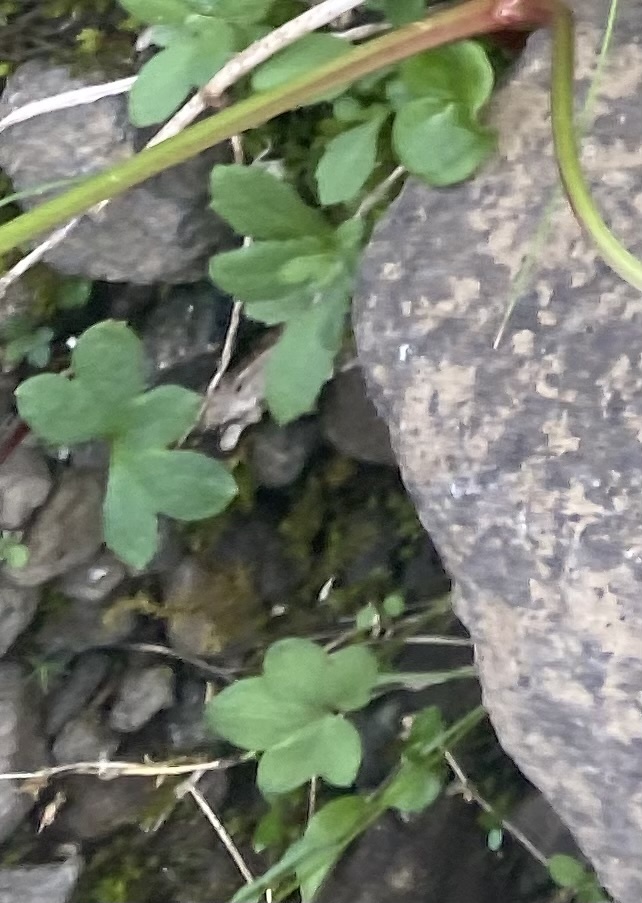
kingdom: Plantae
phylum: Tracheophyta
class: Magnoliopsida
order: Saxifragales
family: Saxifragaceae
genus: Saxifraga
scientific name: Saxifraga cernua
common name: Drooping saxifrage
